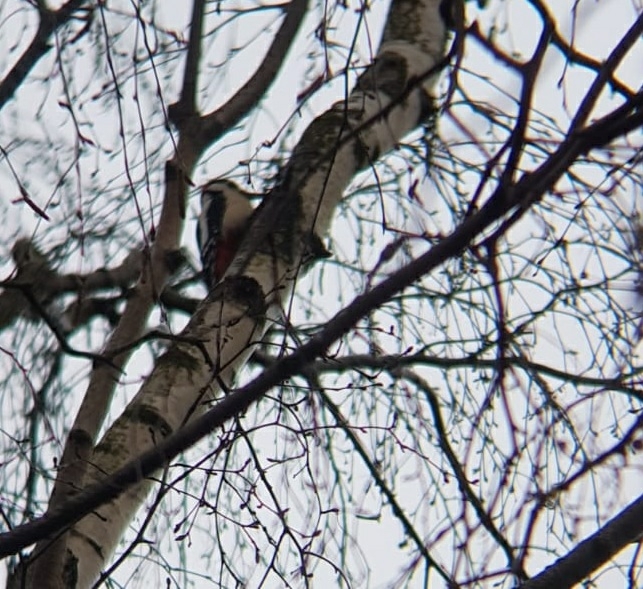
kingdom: Animalia
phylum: Chordata
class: Aves
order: Piciformes
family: Picidae
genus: Dendrocopos
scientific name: Dendrocopos major
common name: Great spotted woodpecker
